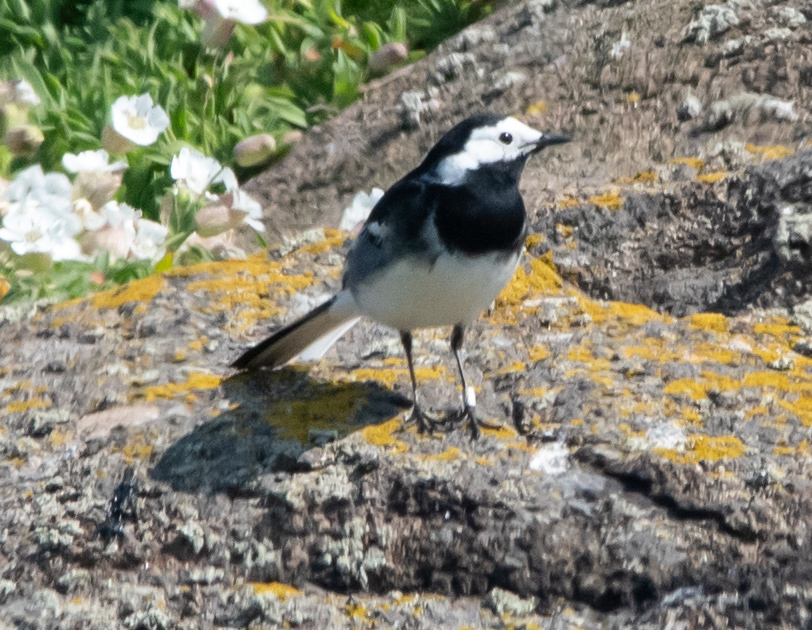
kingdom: Animalia
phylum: Chordata
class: Aves
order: Passeriformes
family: Motacillidae
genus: Motacilla
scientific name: Motacilla alba
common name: White wagtail
